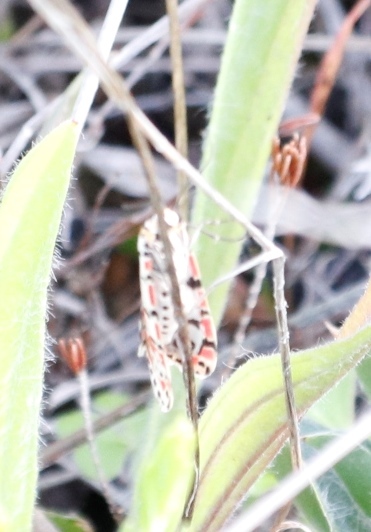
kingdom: Animalia
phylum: Arthropoda
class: Insecta
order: Lepidoptera
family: Erebidae
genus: Utetheisa
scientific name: Utetheisa pulchella
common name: Crimson speckled
